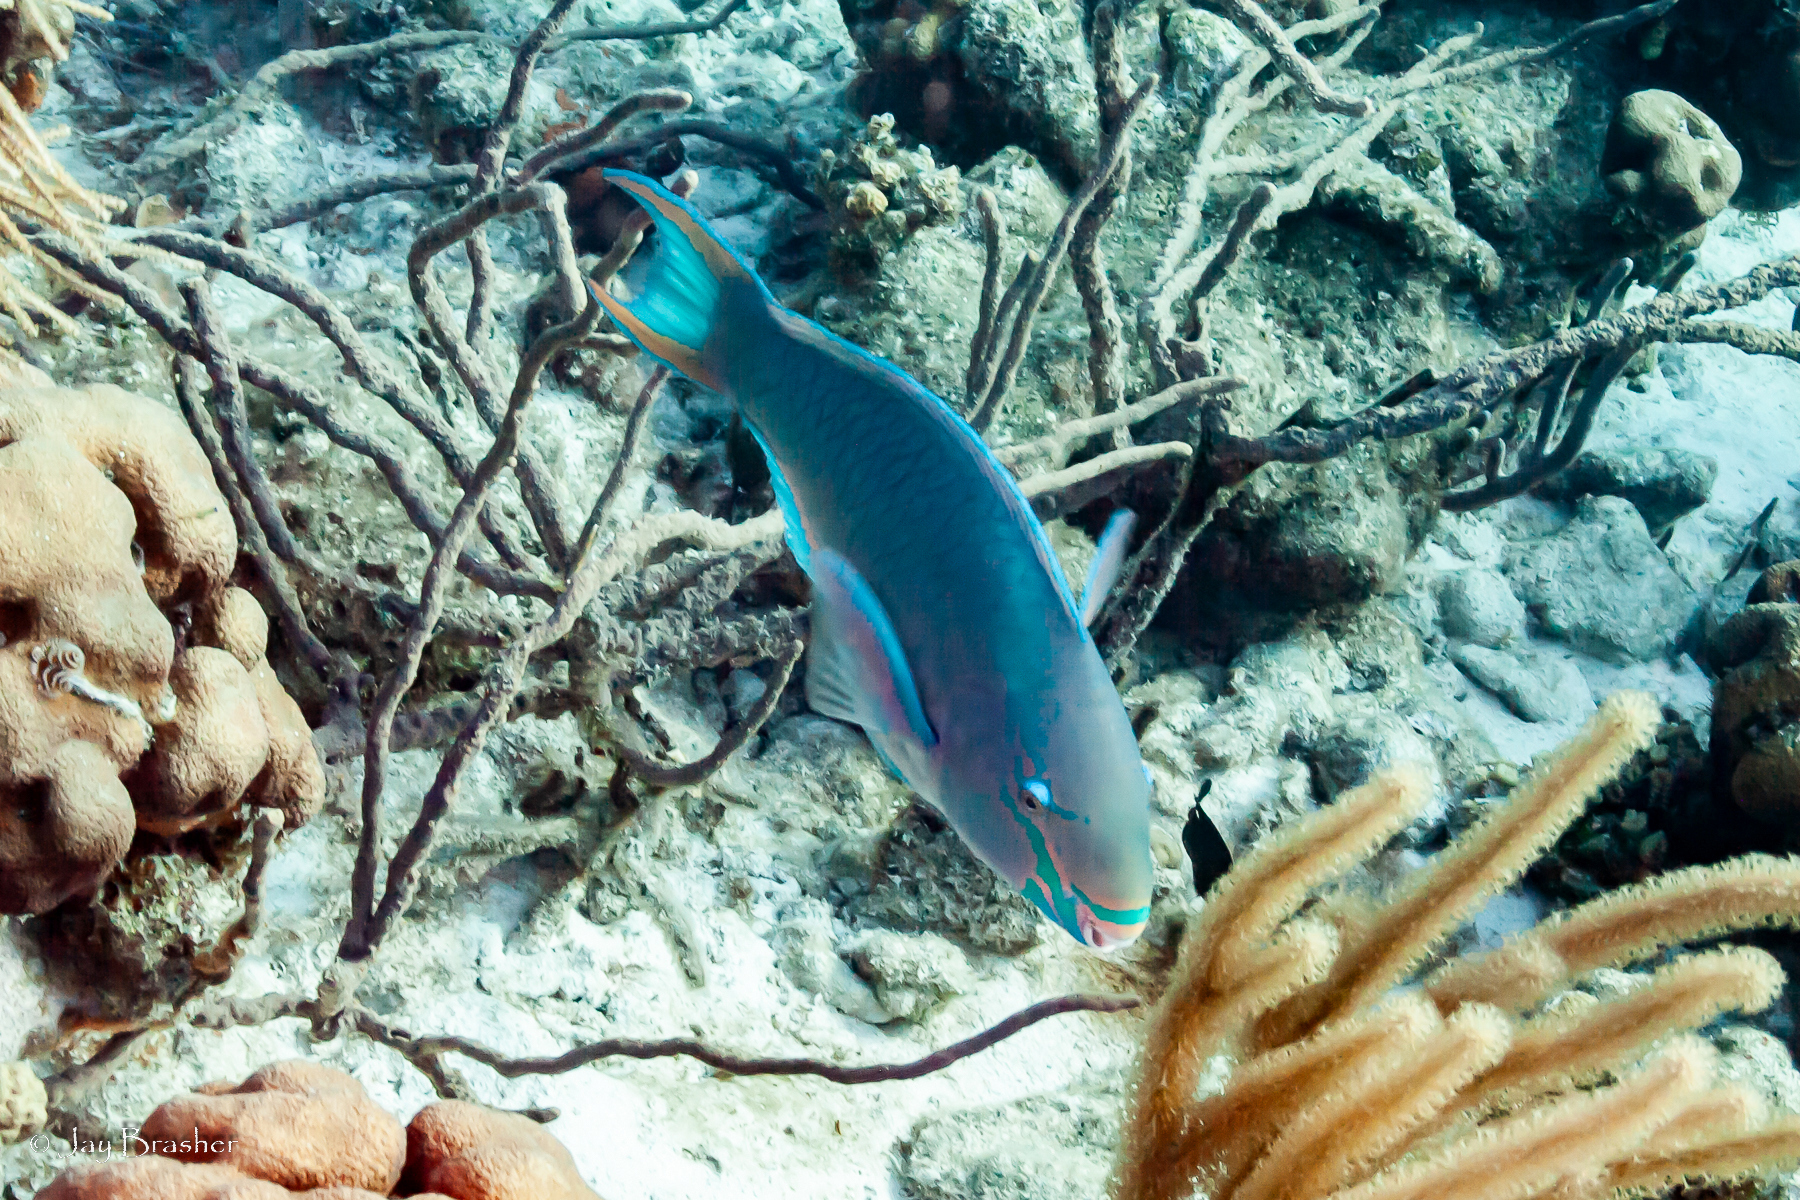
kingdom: Animalia
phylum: Chordata
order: Perciformes
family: Scaridae
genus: Scarus
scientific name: Scarus vetula
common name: Queen parrotfish
